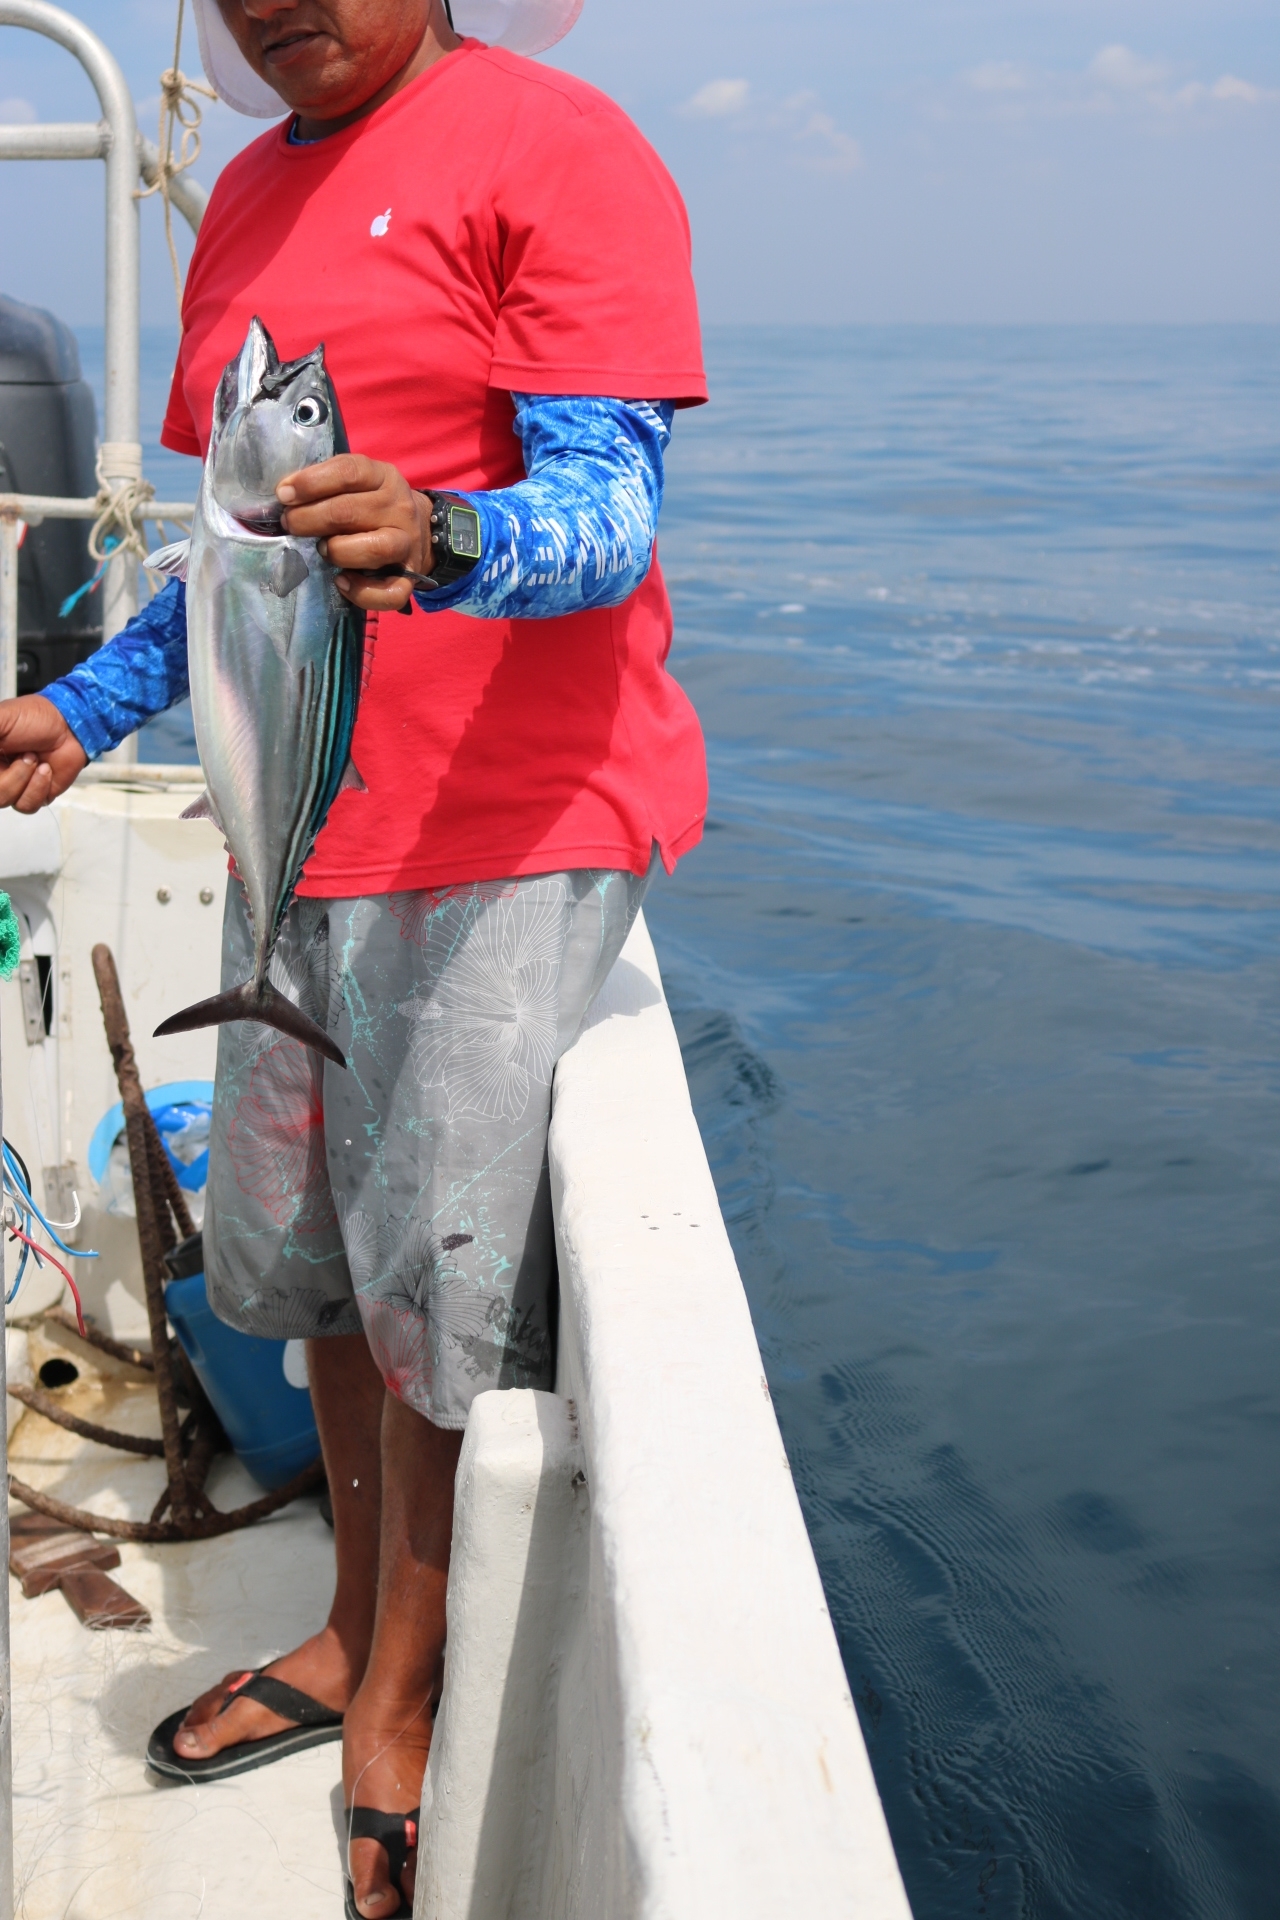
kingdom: Animalia
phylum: Chordata
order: Perciformes
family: Scombridae
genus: Euthynnus
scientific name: Euthynnus lineatus
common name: Black skipjack
